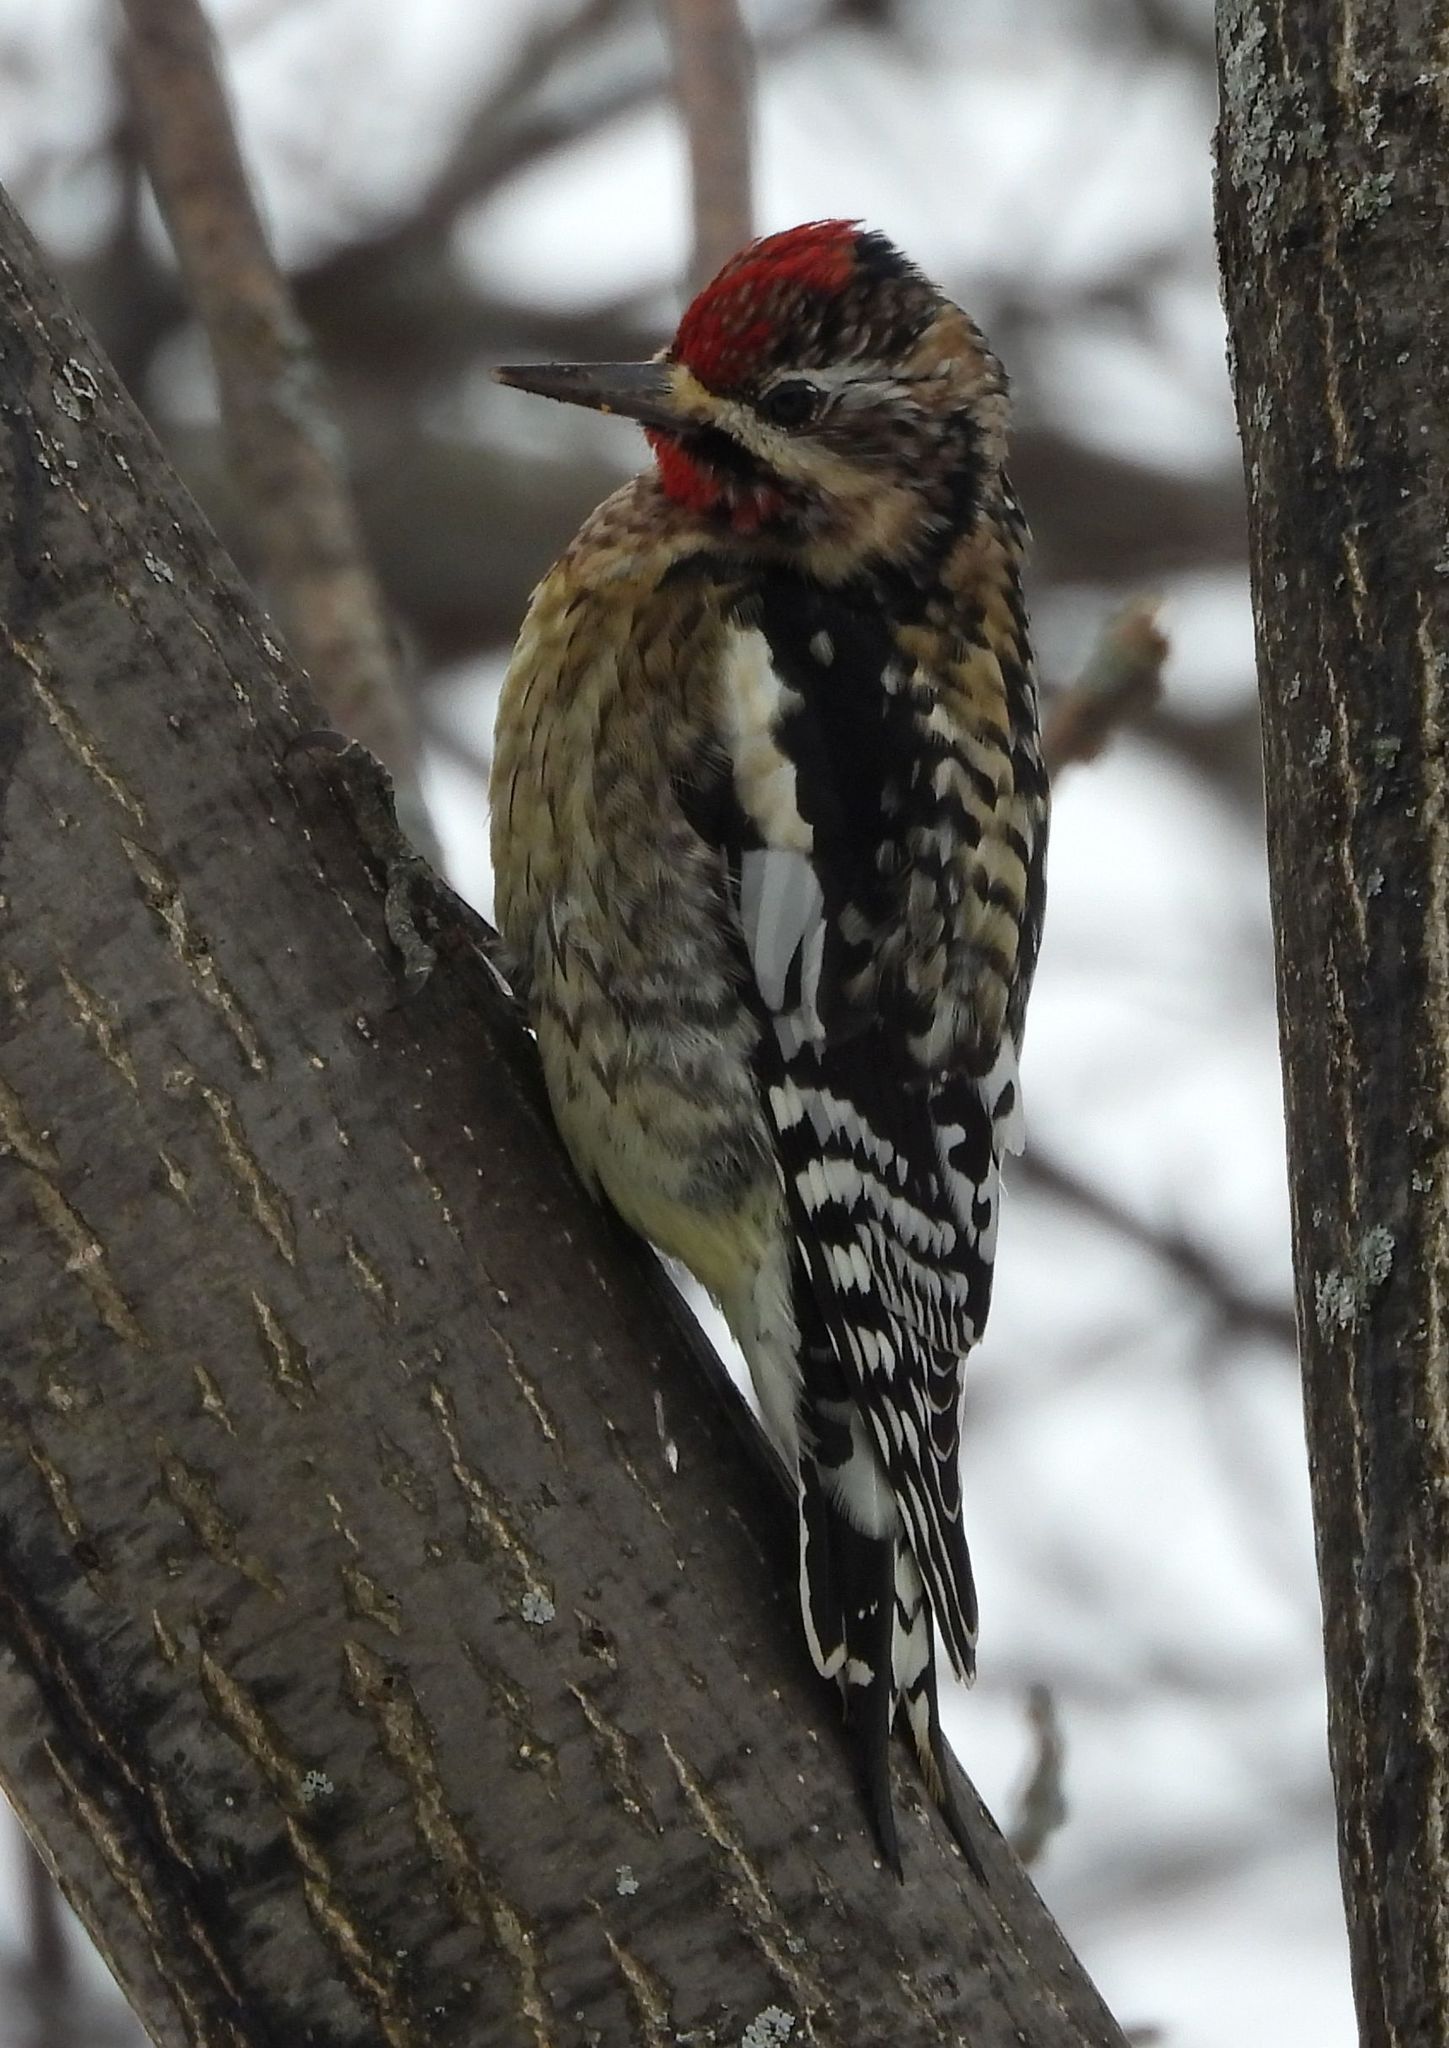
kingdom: Animalia
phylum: Chordata
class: Aves
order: Piciformes
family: Picidae
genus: Sphyrapicus
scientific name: Sphyrapicus varius
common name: Yellow-bellied sapsucker
